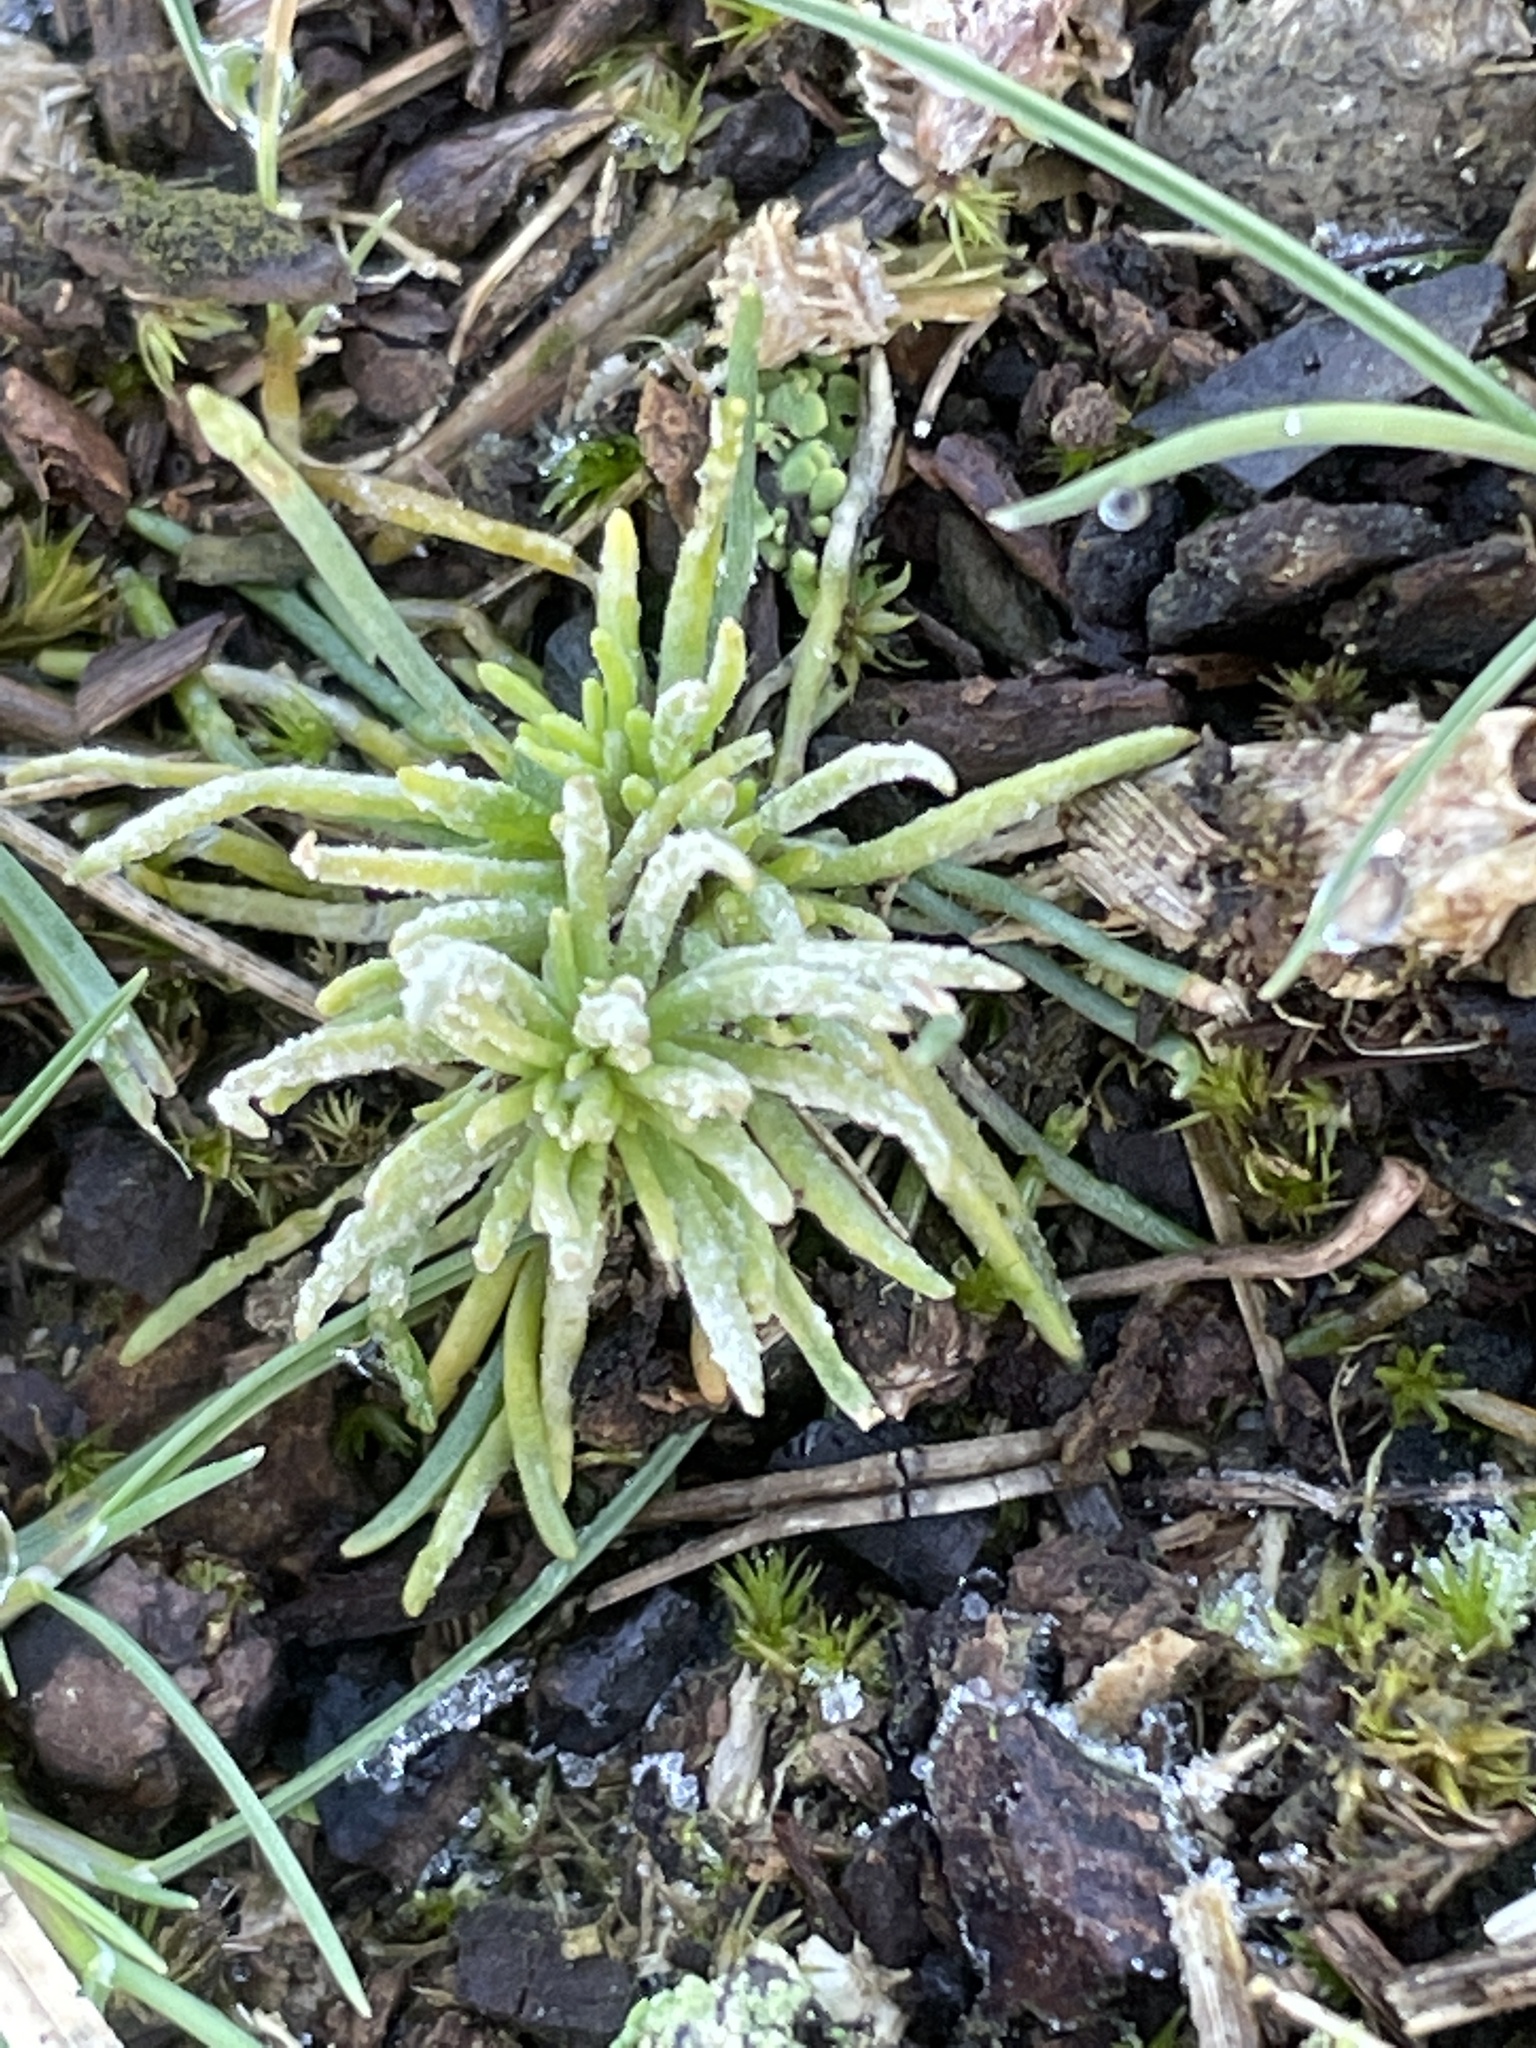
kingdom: Plantae
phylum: Tracheophyta
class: Magnoliopsida
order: Caryophyllales
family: Caryophyllaceae
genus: Spergula
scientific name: Spergula morisonii
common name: Pearlwort spurrey
